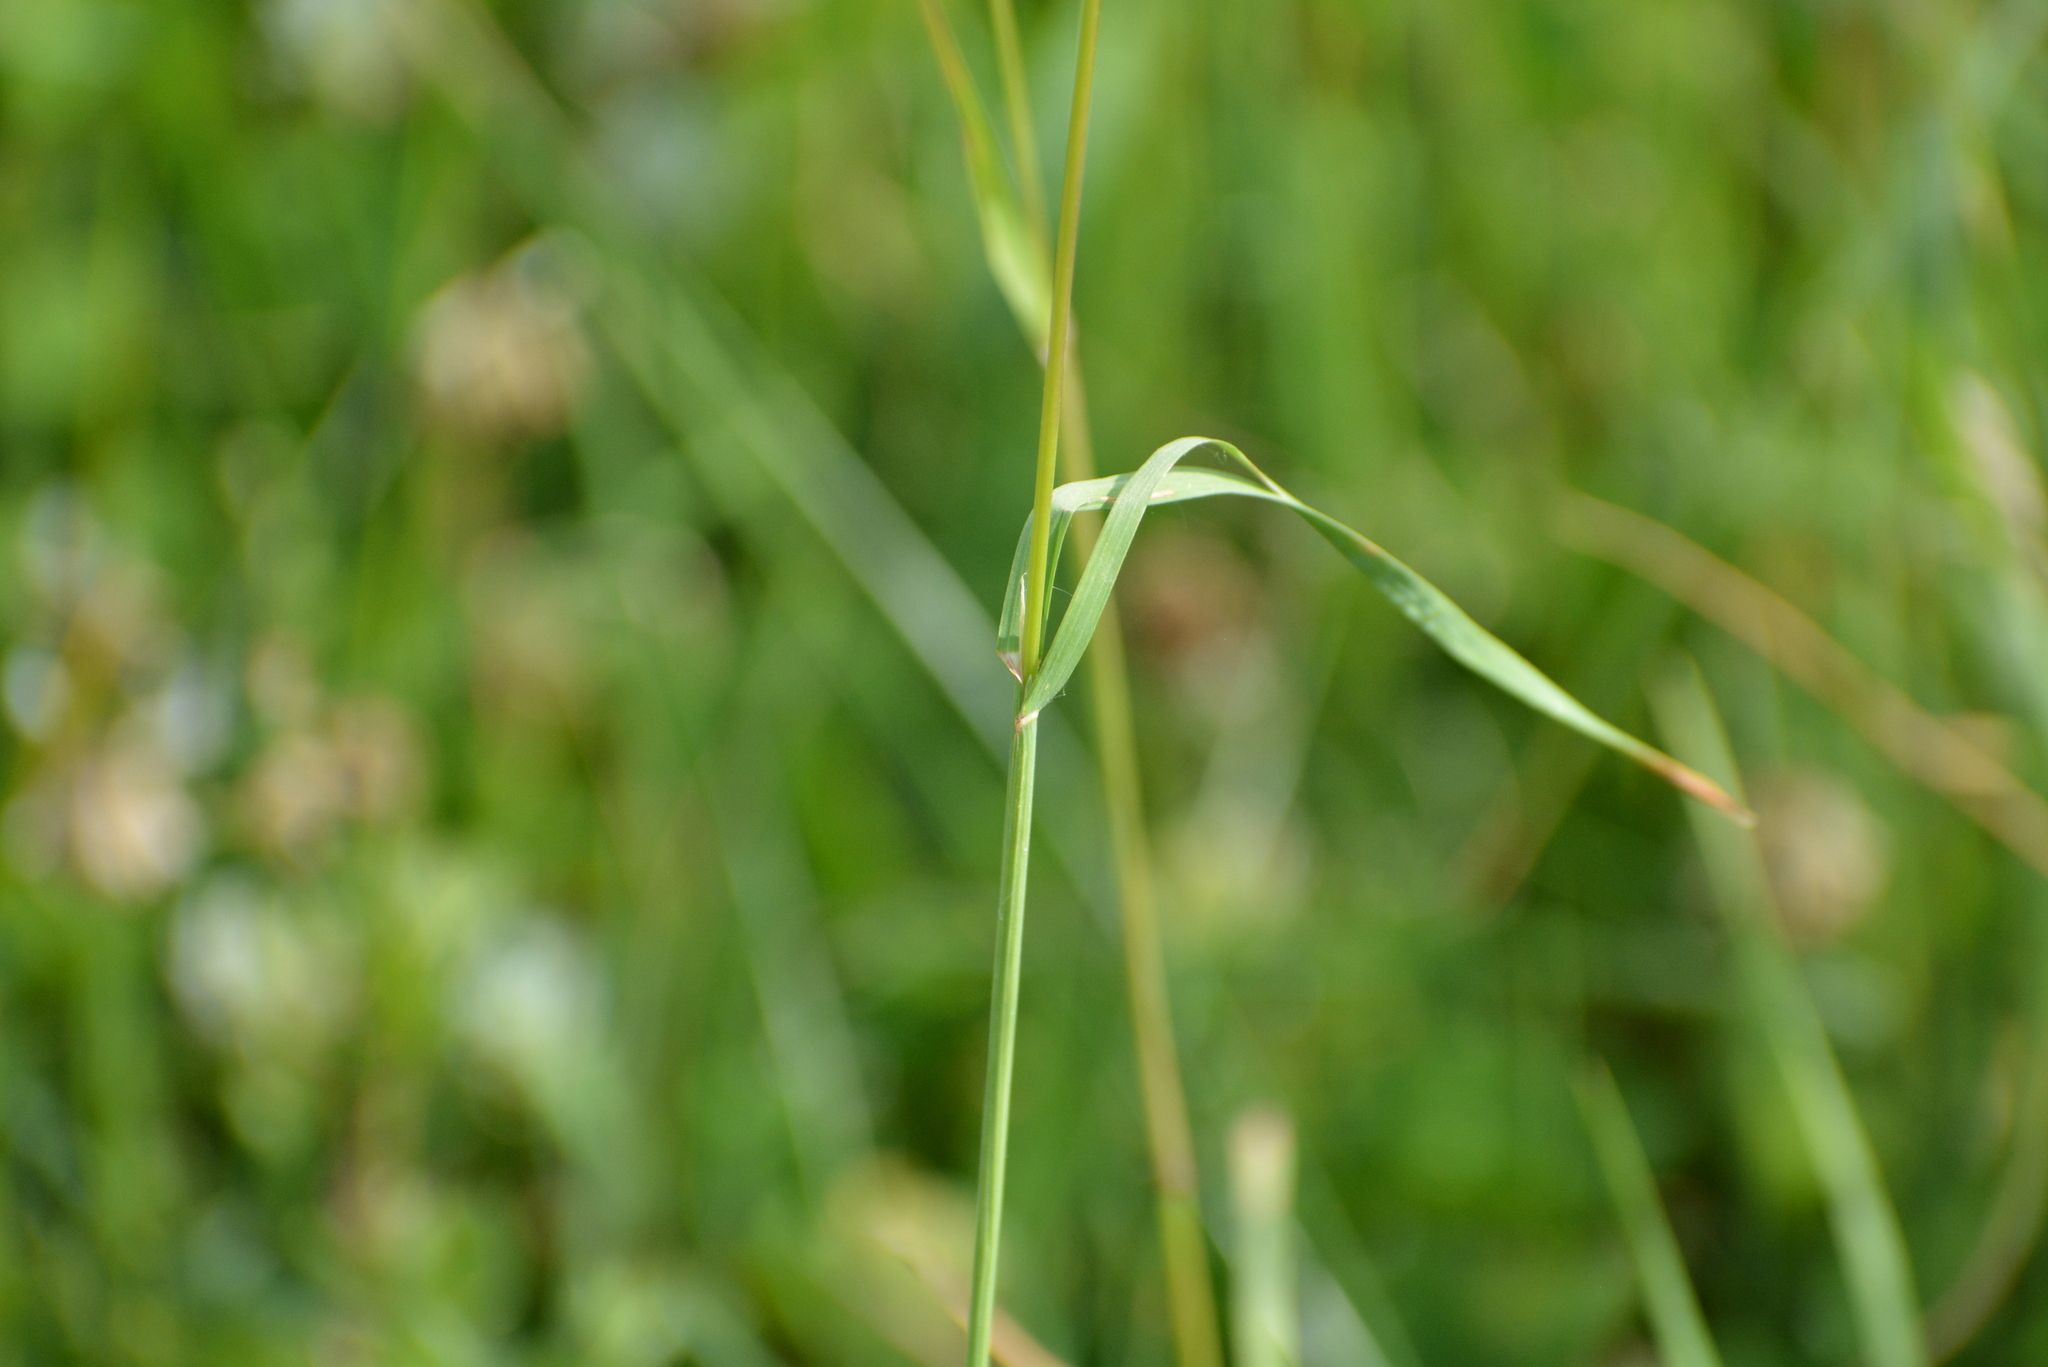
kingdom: Plantae
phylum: Tracheophyta
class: Liliopsida
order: Poales
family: Poaceae
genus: Dactylis
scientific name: Dactylis glomerata
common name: Orchardgrass
